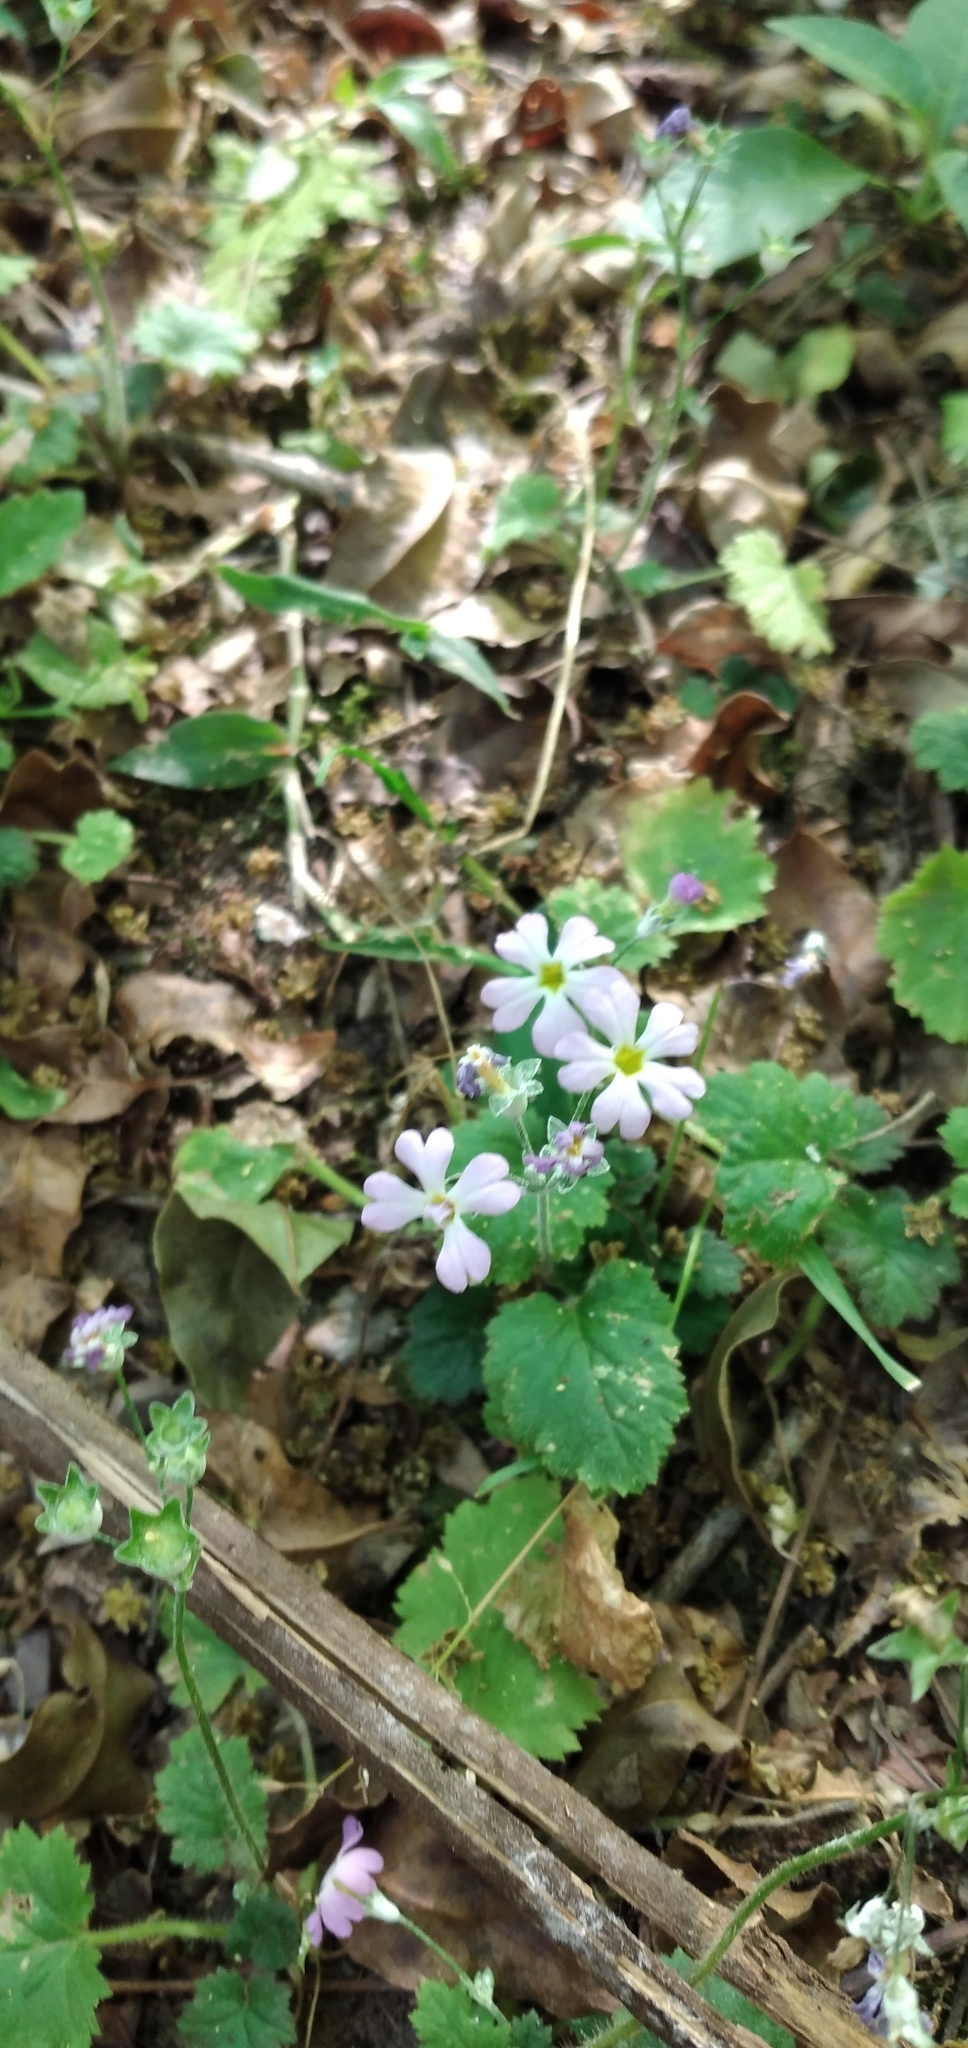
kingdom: Plantae
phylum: Tracheophyta
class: Magnoliopsida
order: Ericales
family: Primulaceae
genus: Primula
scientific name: Primula malacoides
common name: Baby primrose
